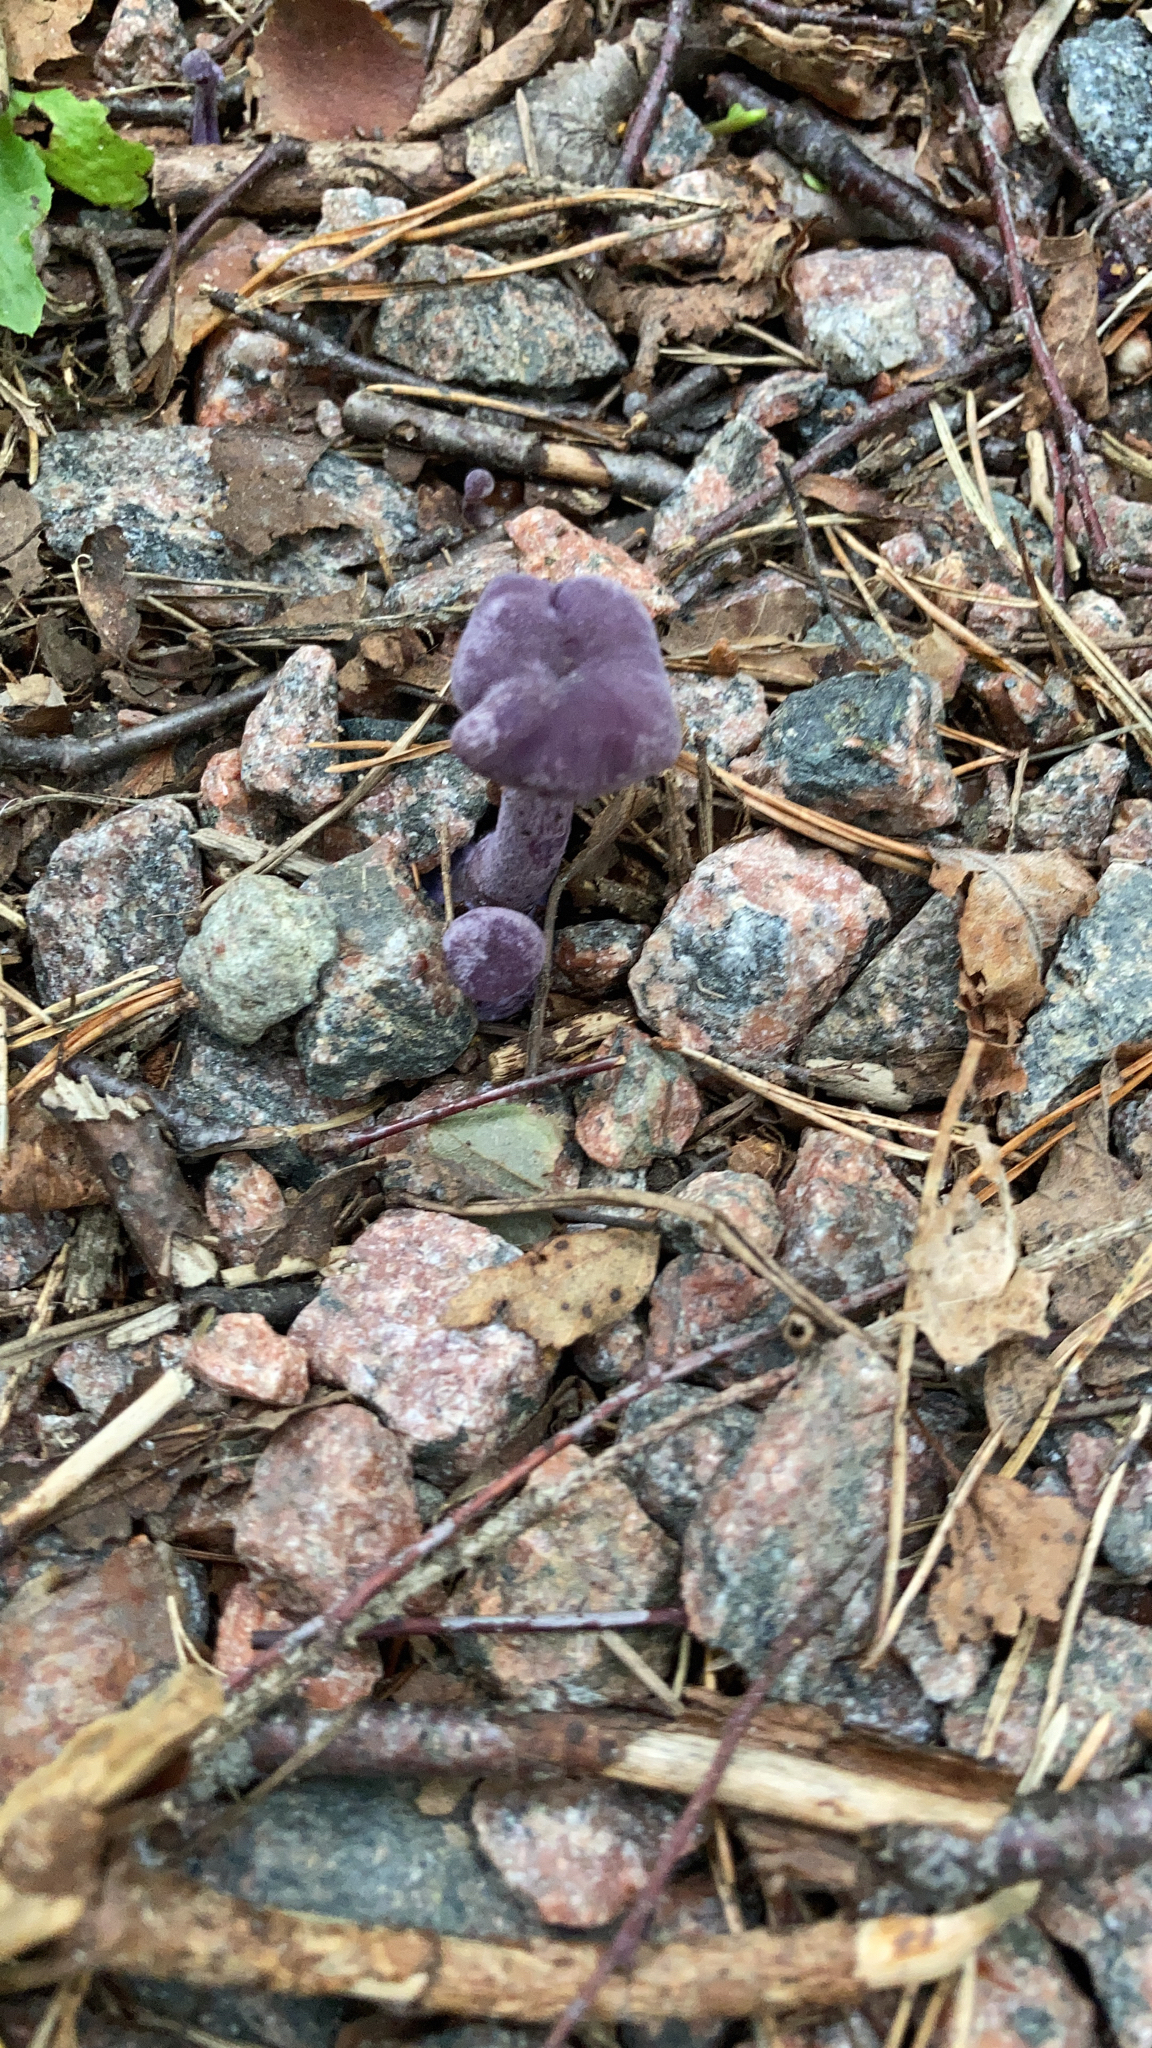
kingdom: Fungi
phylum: Basidiomycota
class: Agaricomycetes
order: Agaricales
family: Hydnangiaceae
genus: Laccaria
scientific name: Laccaria amethystina
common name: Amethyst deceiver
